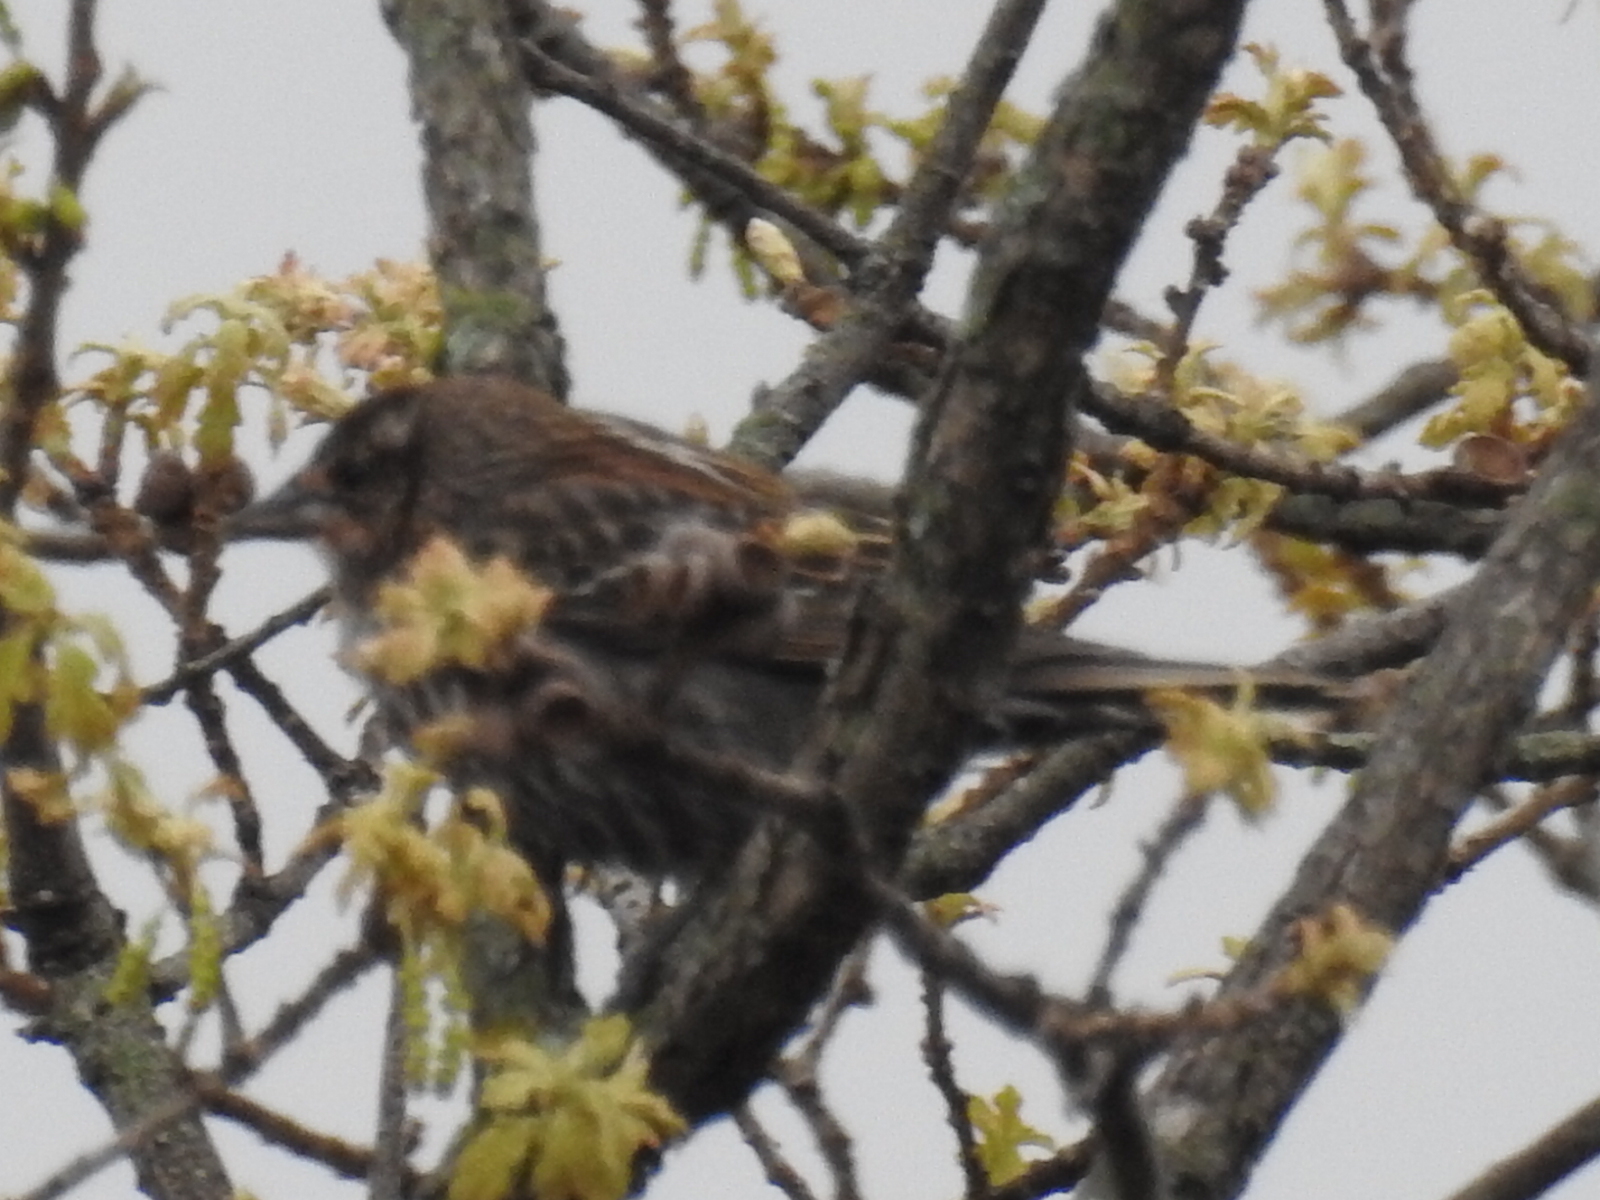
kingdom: Animalia
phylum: Chordata
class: Aves
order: Passeriformes
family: Icteridae
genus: Agelaius
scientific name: Agelaius phoeniceus
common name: Red-winged blackbird
